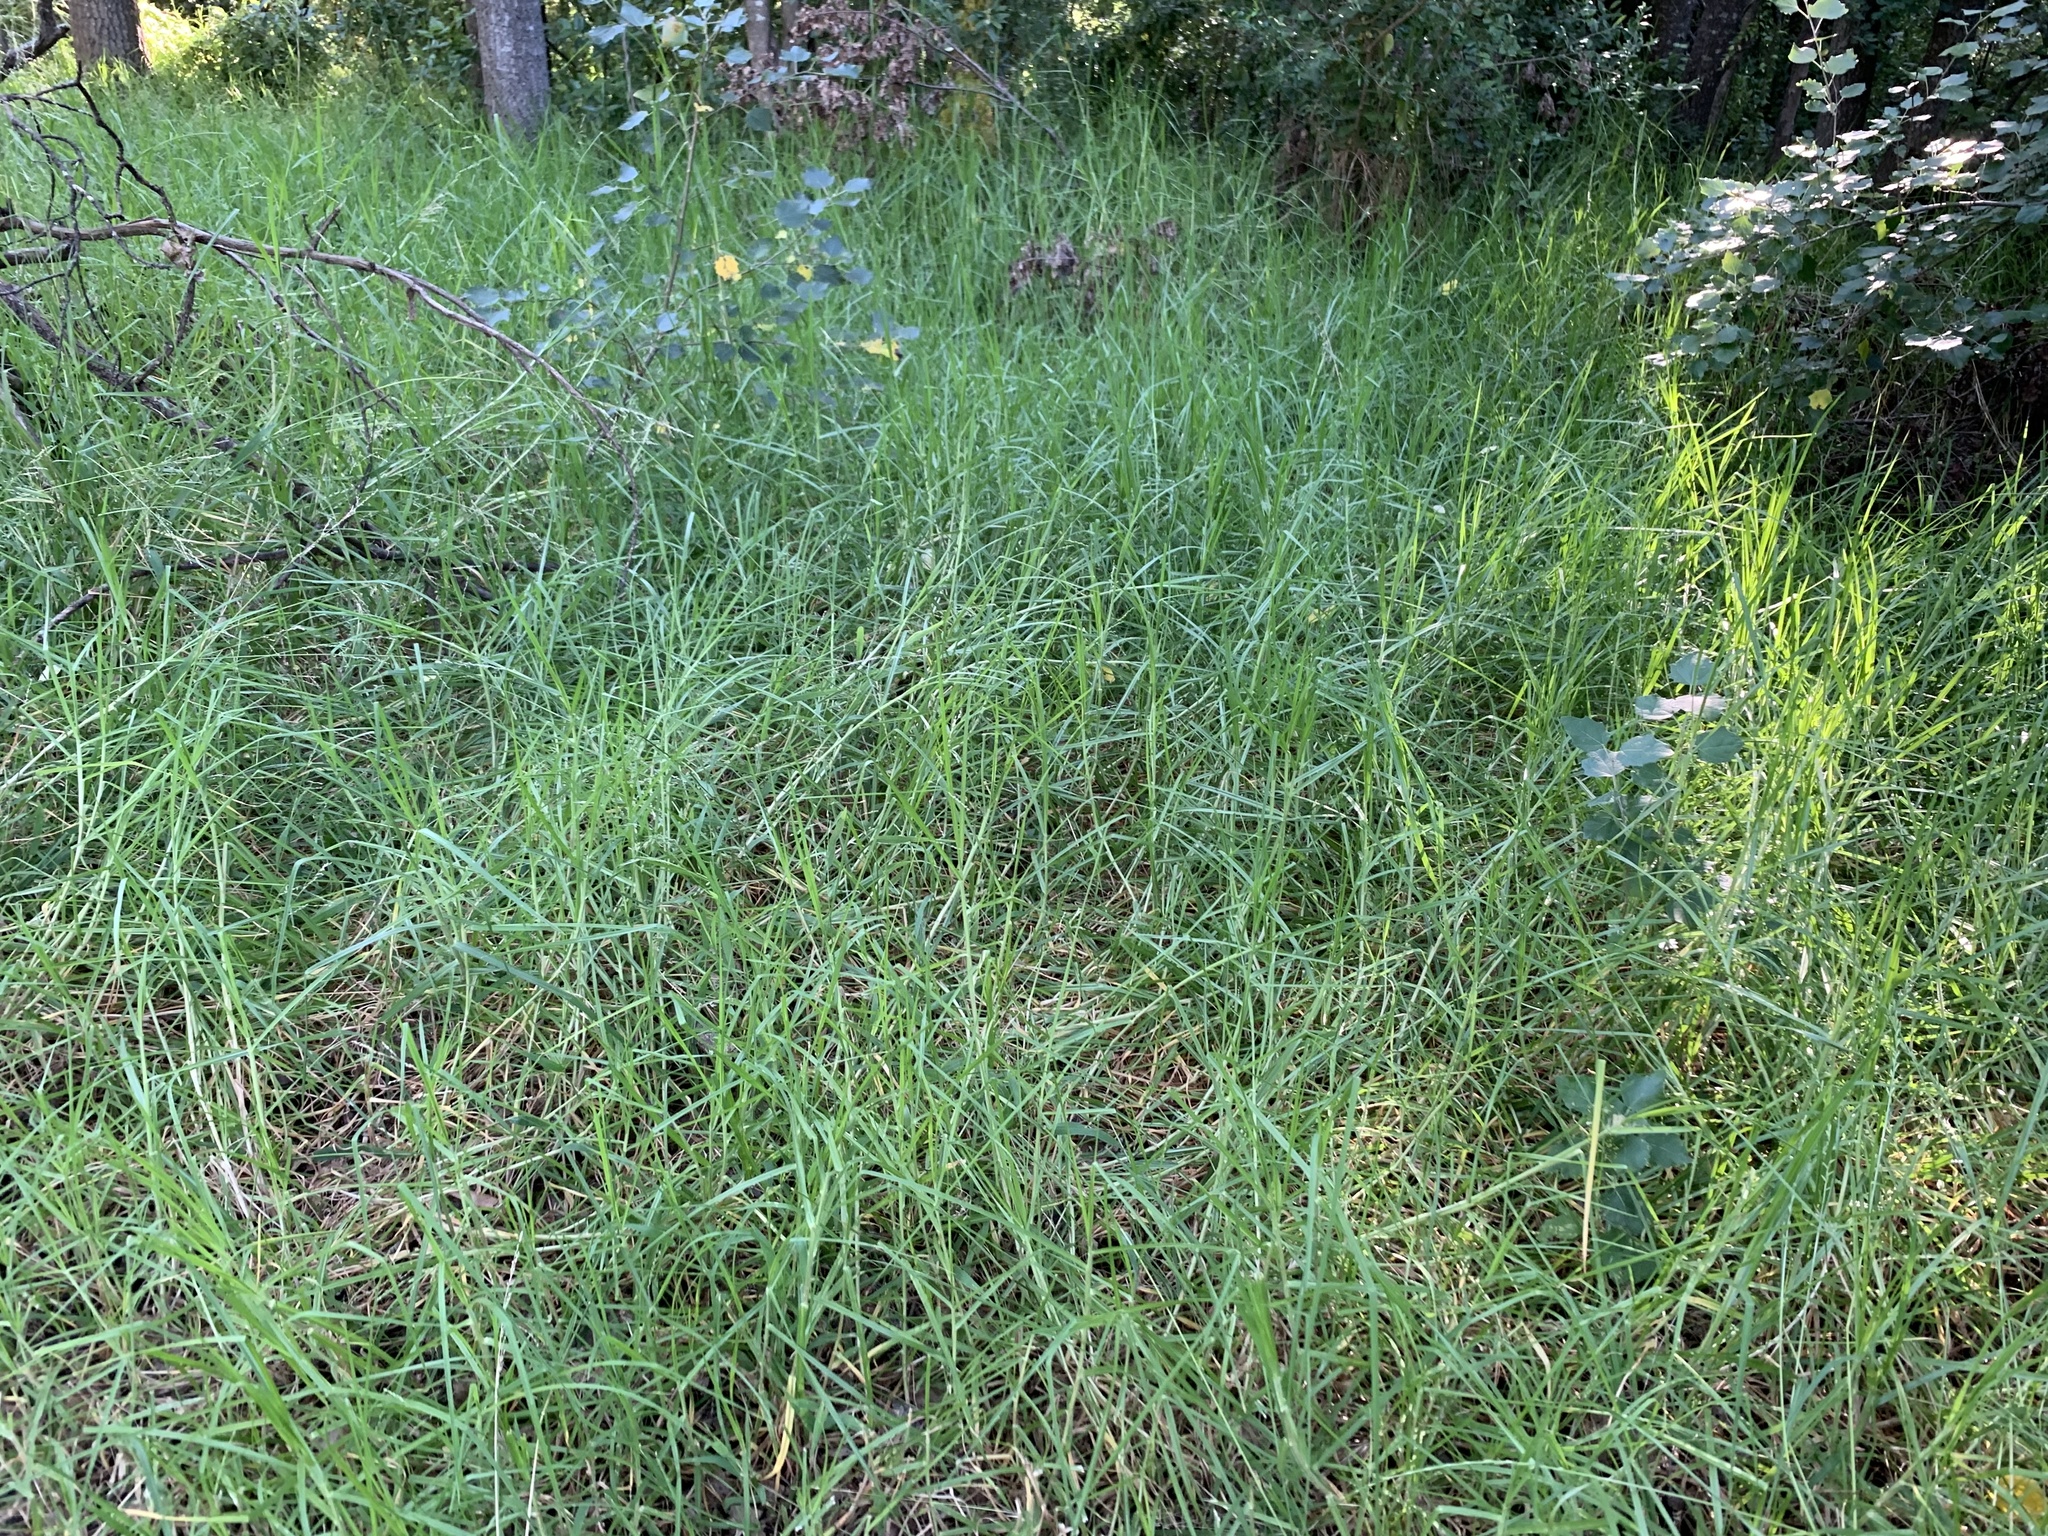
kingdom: Plantae
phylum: Tracheophyta
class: Liliopsida
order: Poales
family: Poaceae
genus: Cenchrus
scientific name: Cenchrus clandestinus
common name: Kikuyugrass
